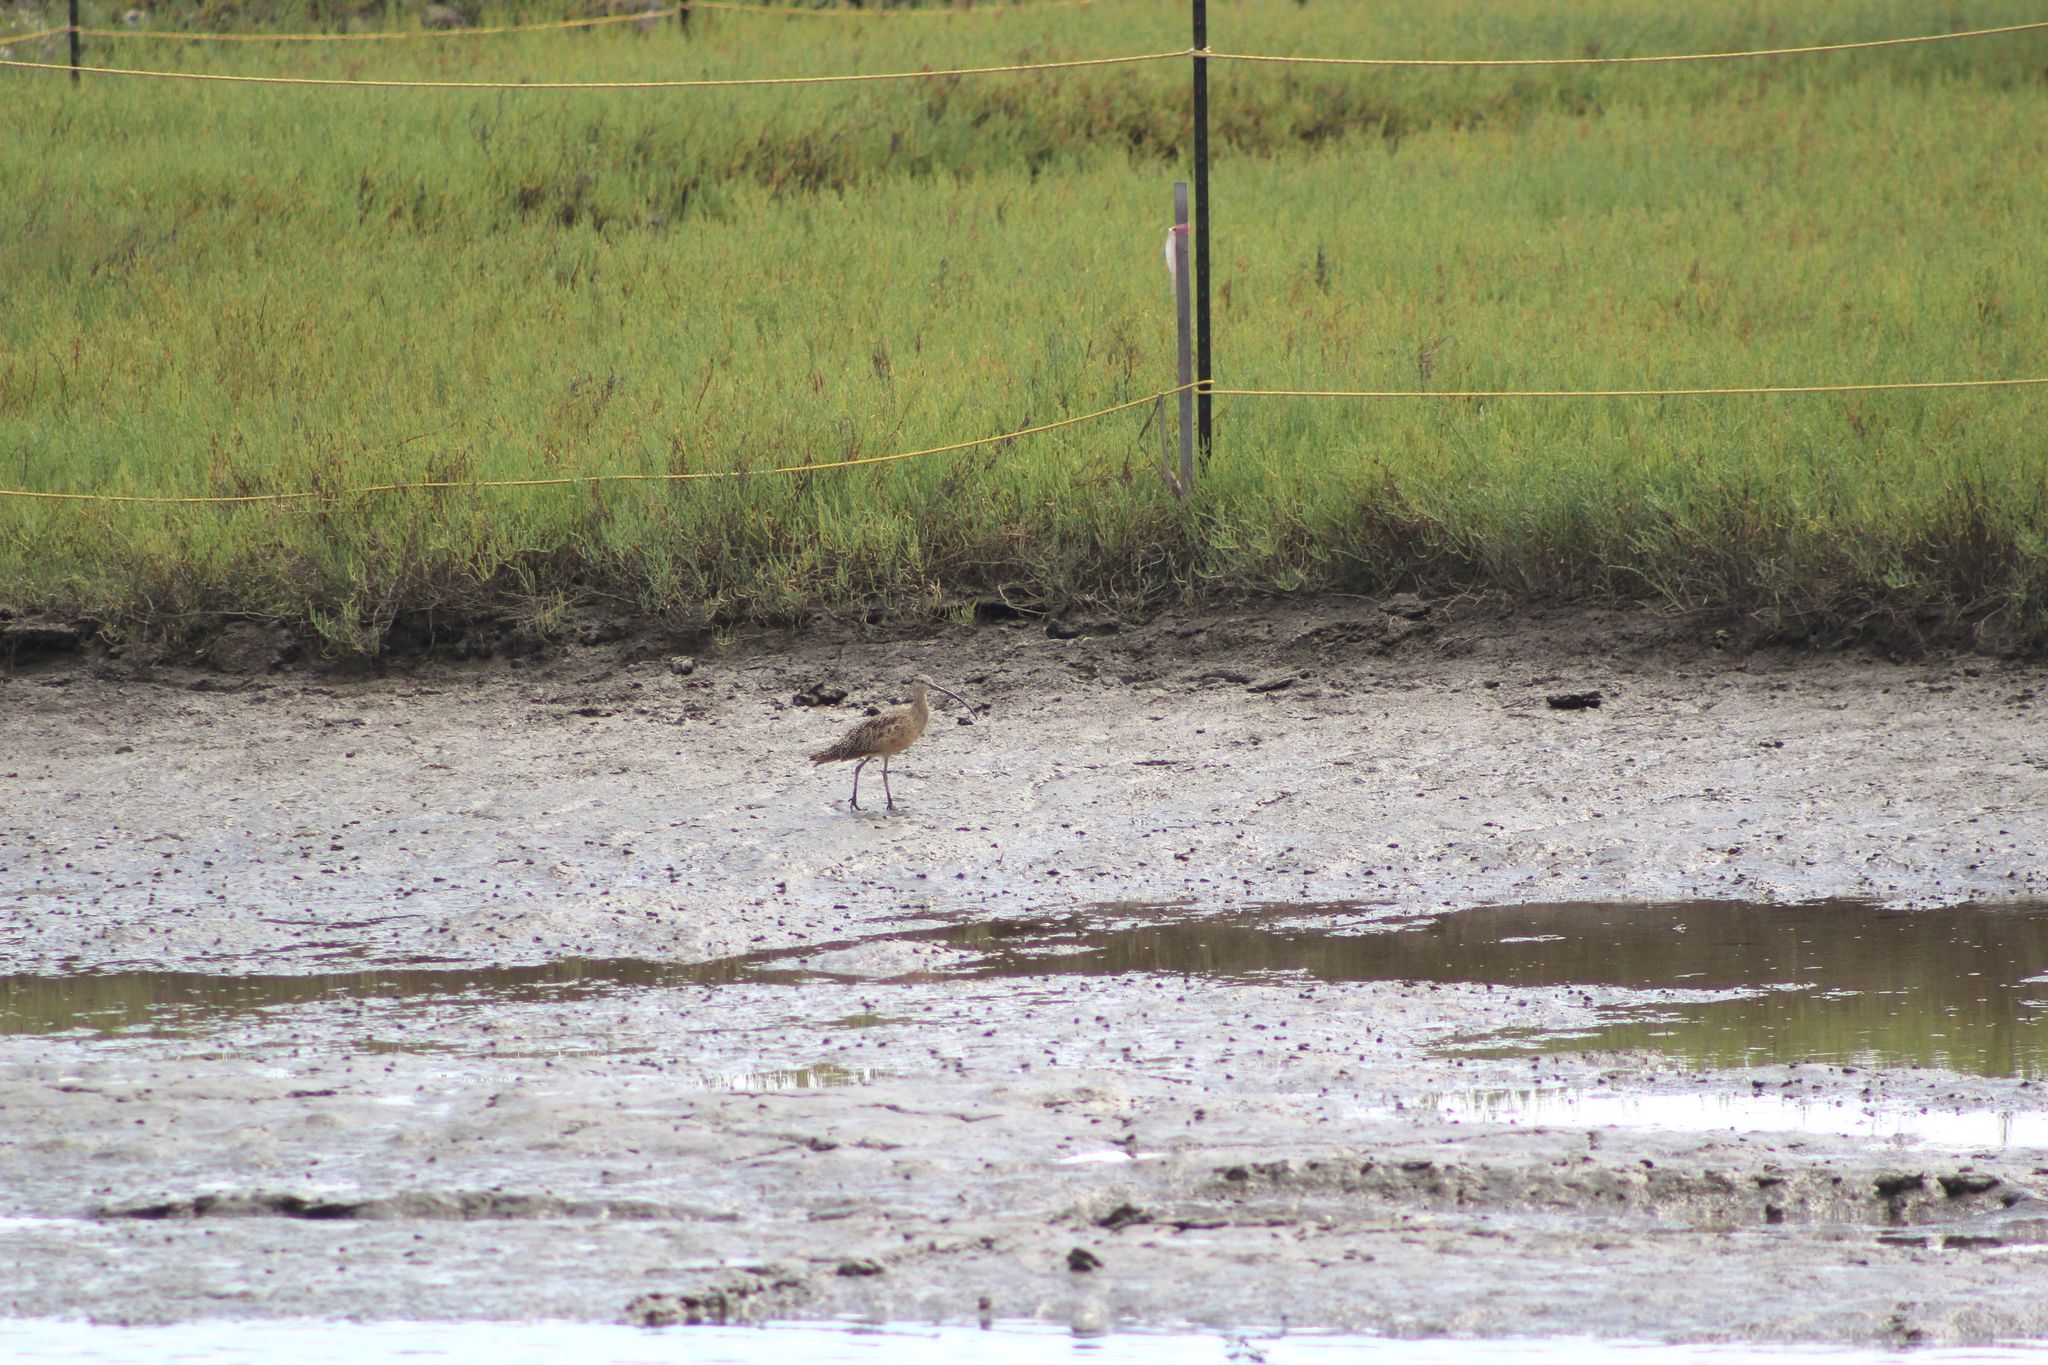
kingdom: Animalia
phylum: Chordata
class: Aves
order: Charadriiformes
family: Scolopacidae
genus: Numenius
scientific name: Numenius americanus
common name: Long-billed curlew
